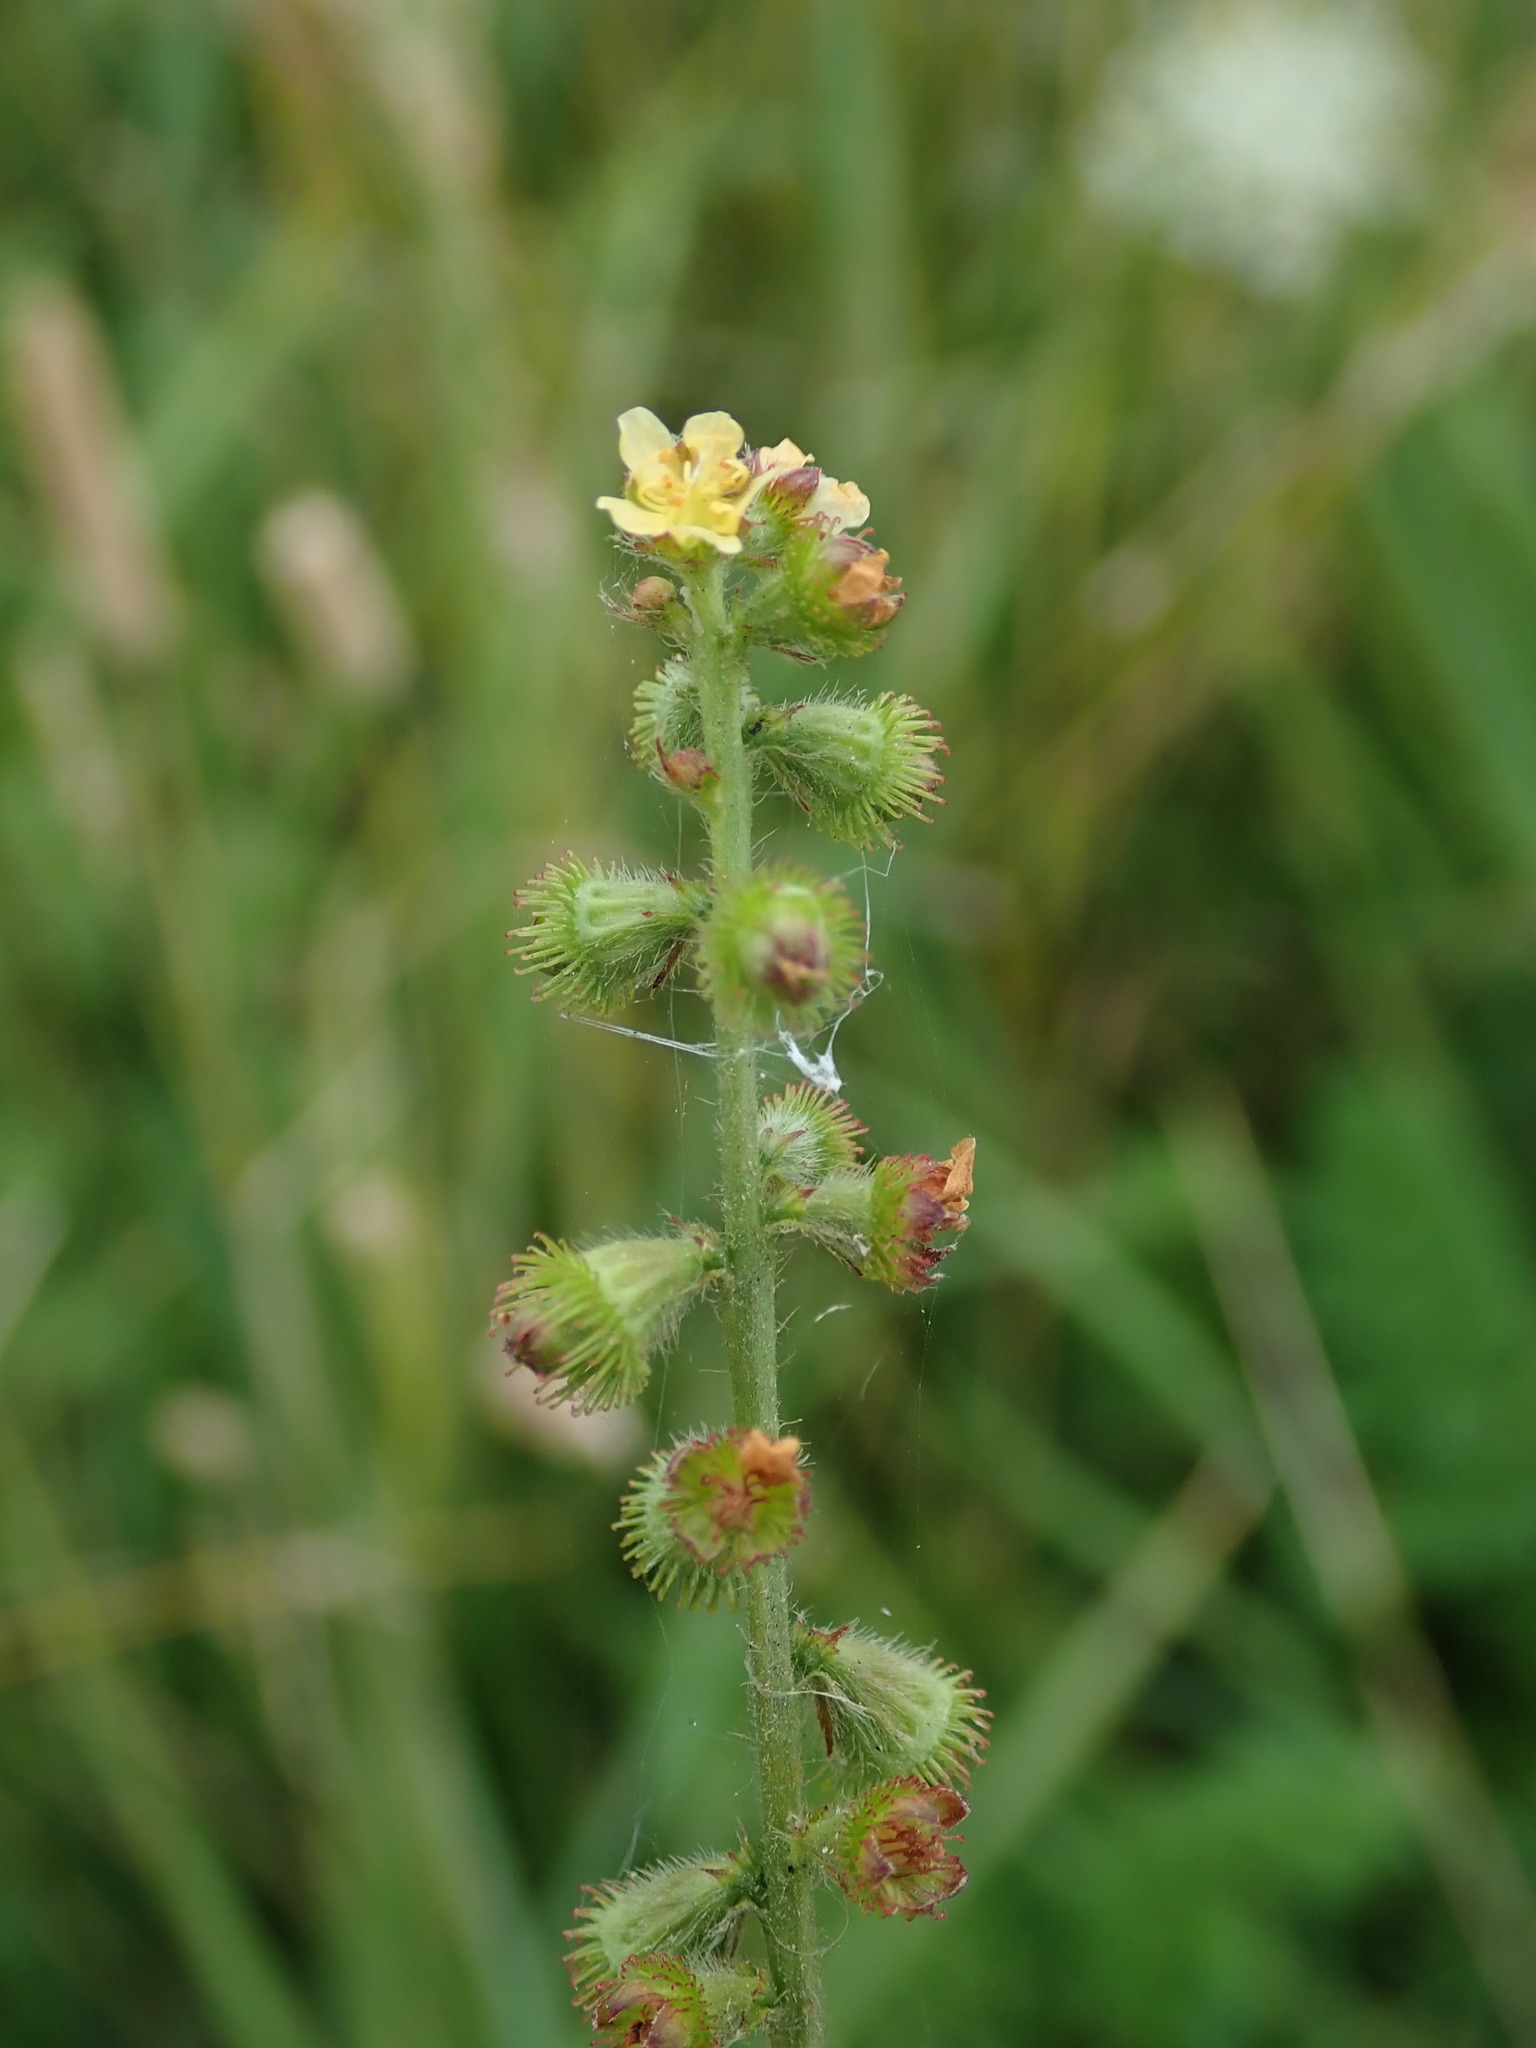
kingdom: Plantae
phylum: Tracheophyta
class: Magnoliopsida
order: Rosales
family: Rosaceae
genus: Agrimonia
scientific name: Agrimonia eupatoria
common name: Agrimony
